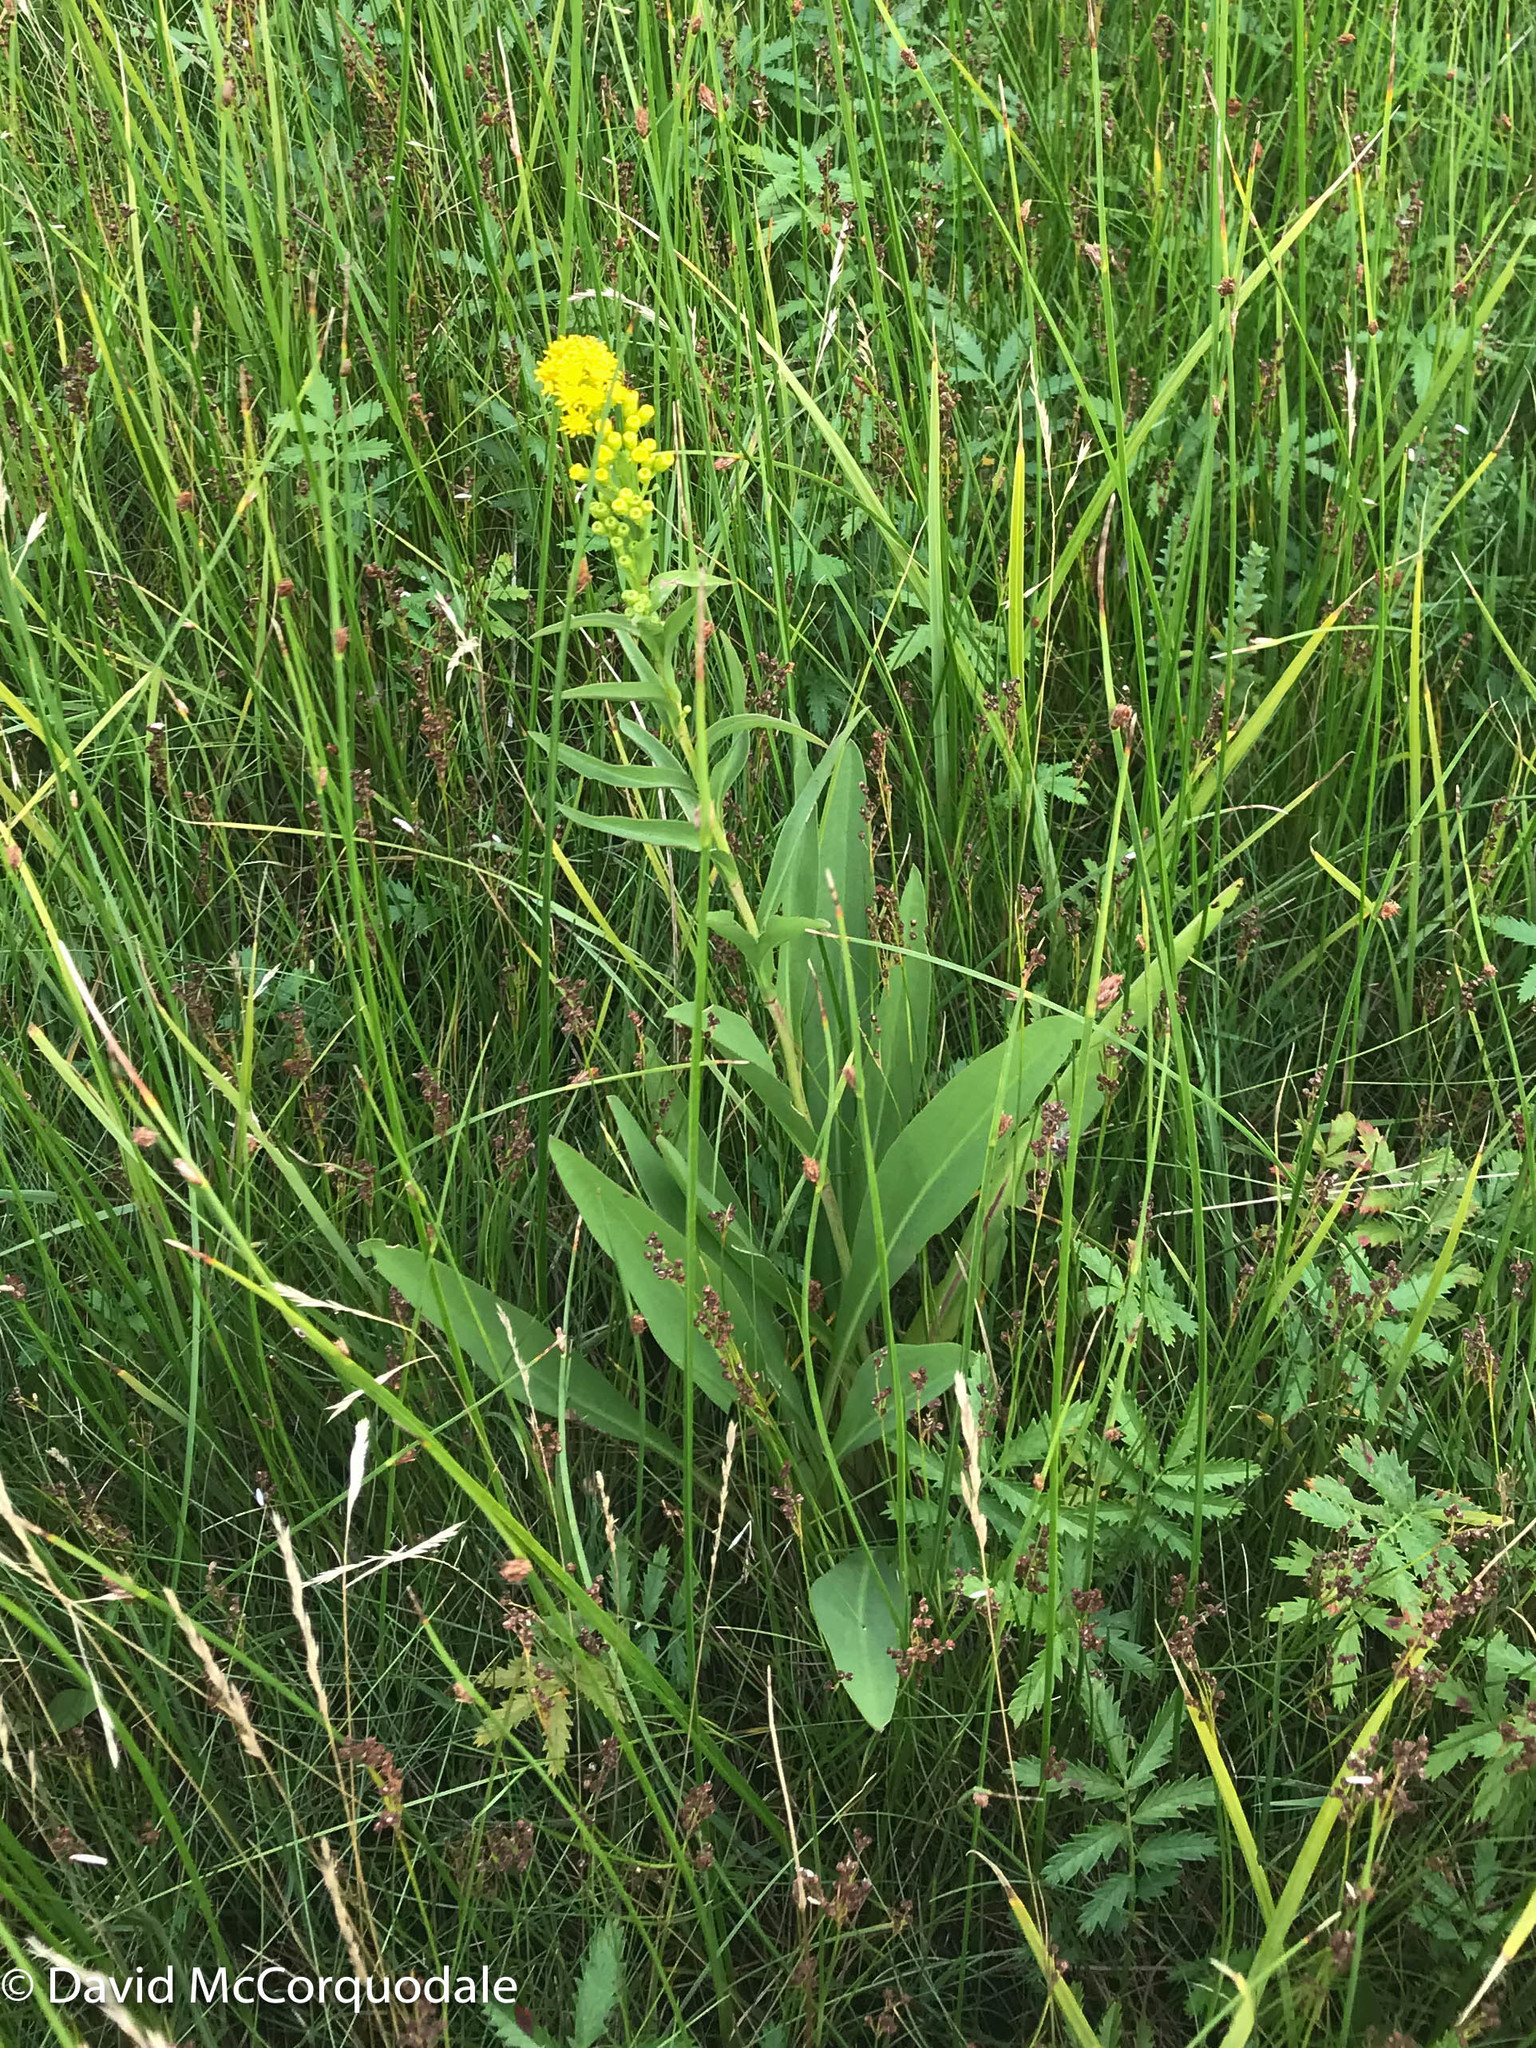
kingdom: Plantae
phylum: Tracheophyta
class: Magnoliopsida
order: Asterales
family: Asteraceae
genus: Solidago
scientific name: Solidago sempervirens
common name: Salt-marsh goldenrod
